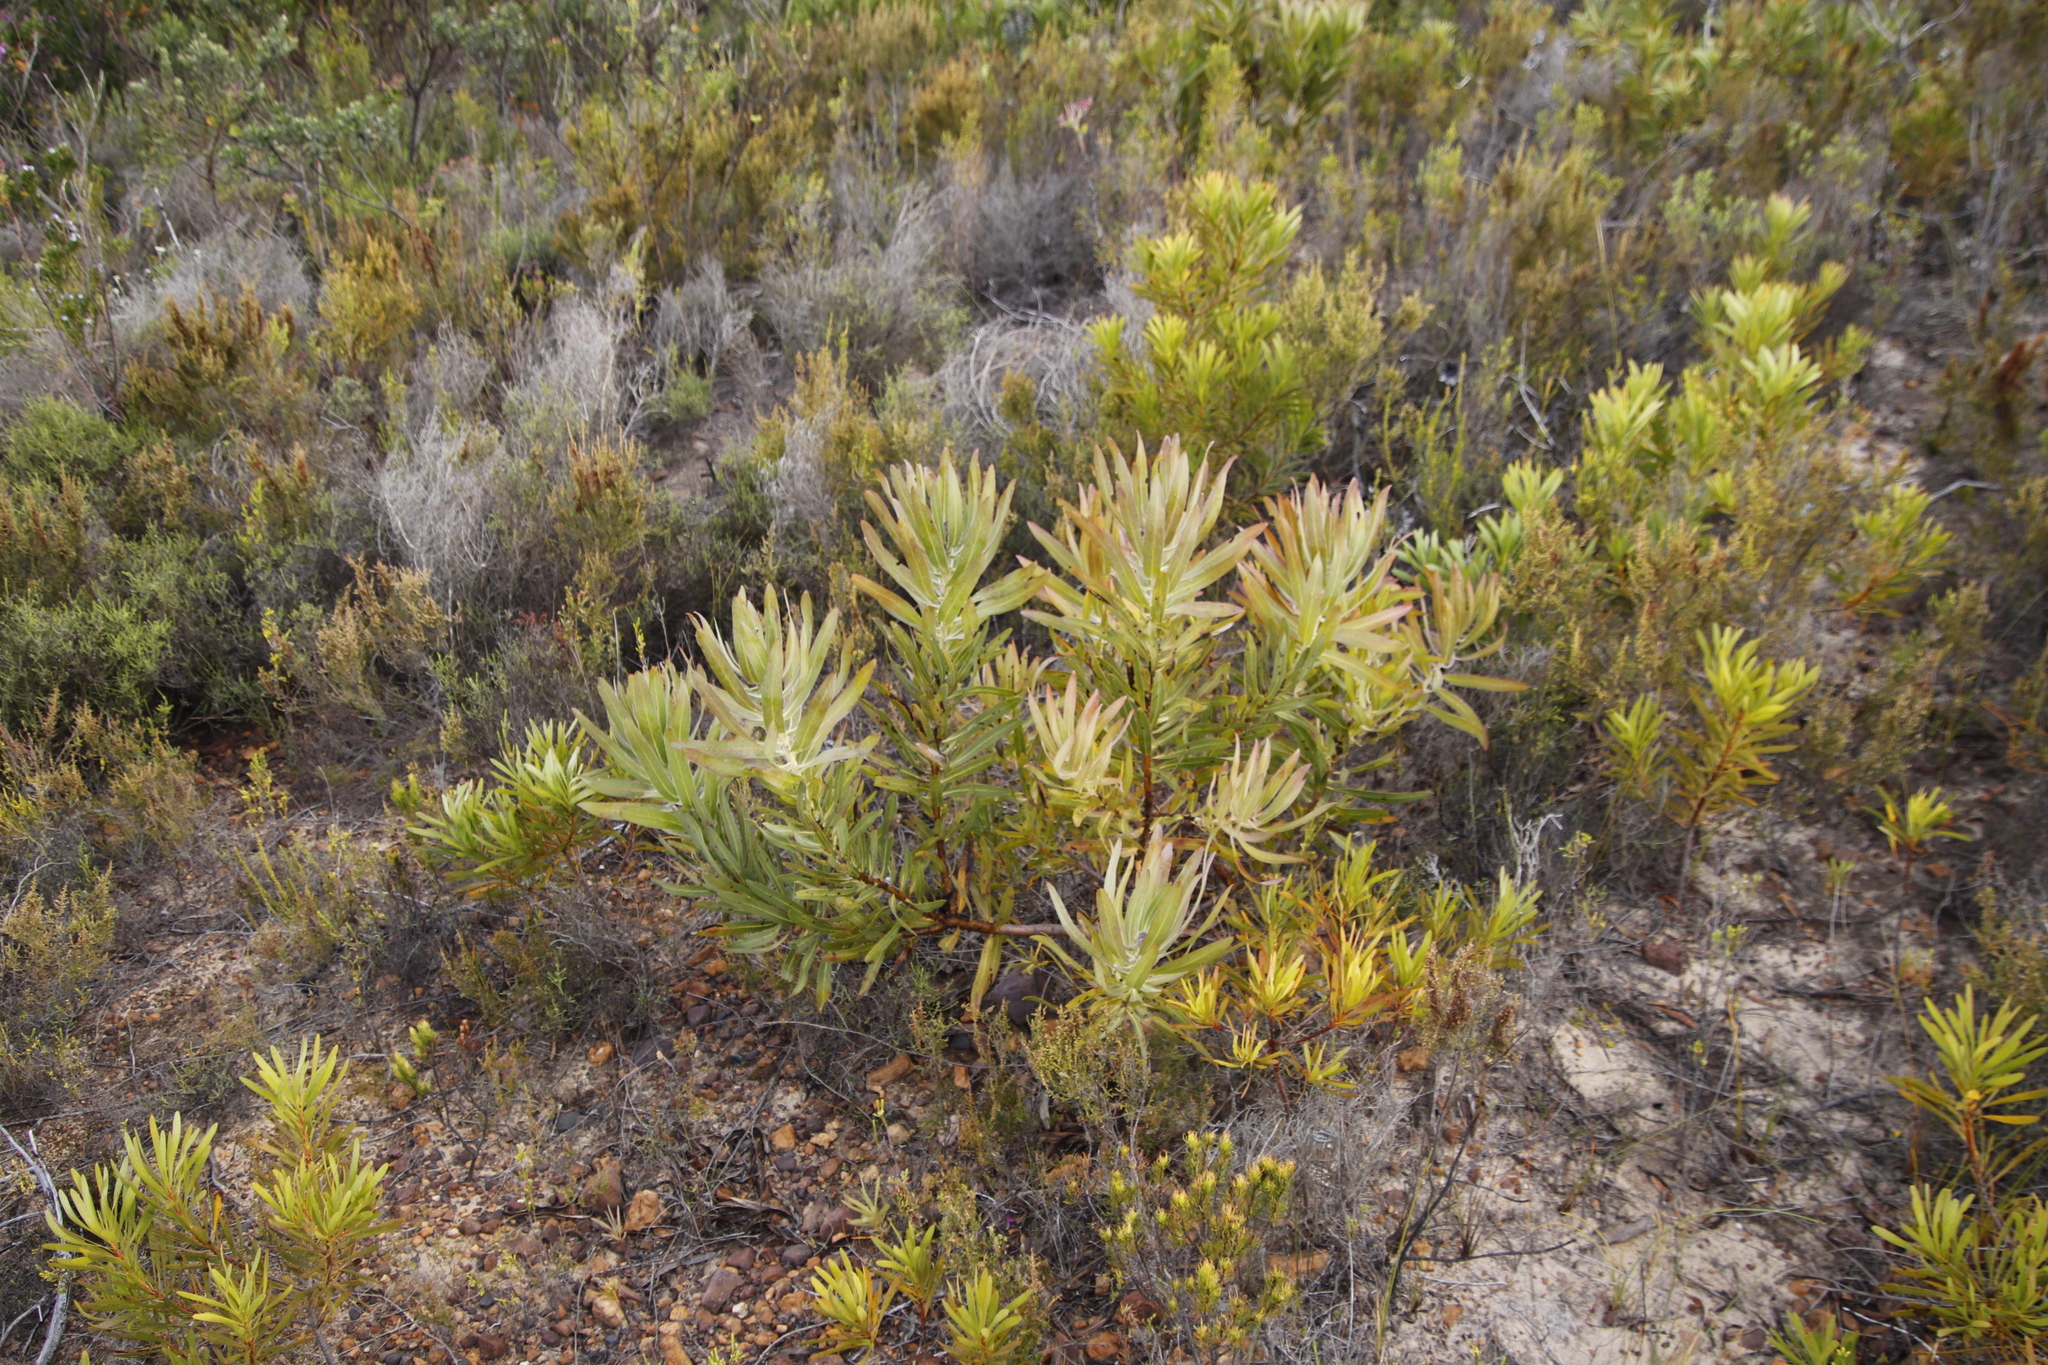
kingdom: Plantae
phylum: Tracheophyta
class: Magnoliopsida
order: Proteales
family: Proteaceae
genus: Protea
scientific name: Protea
